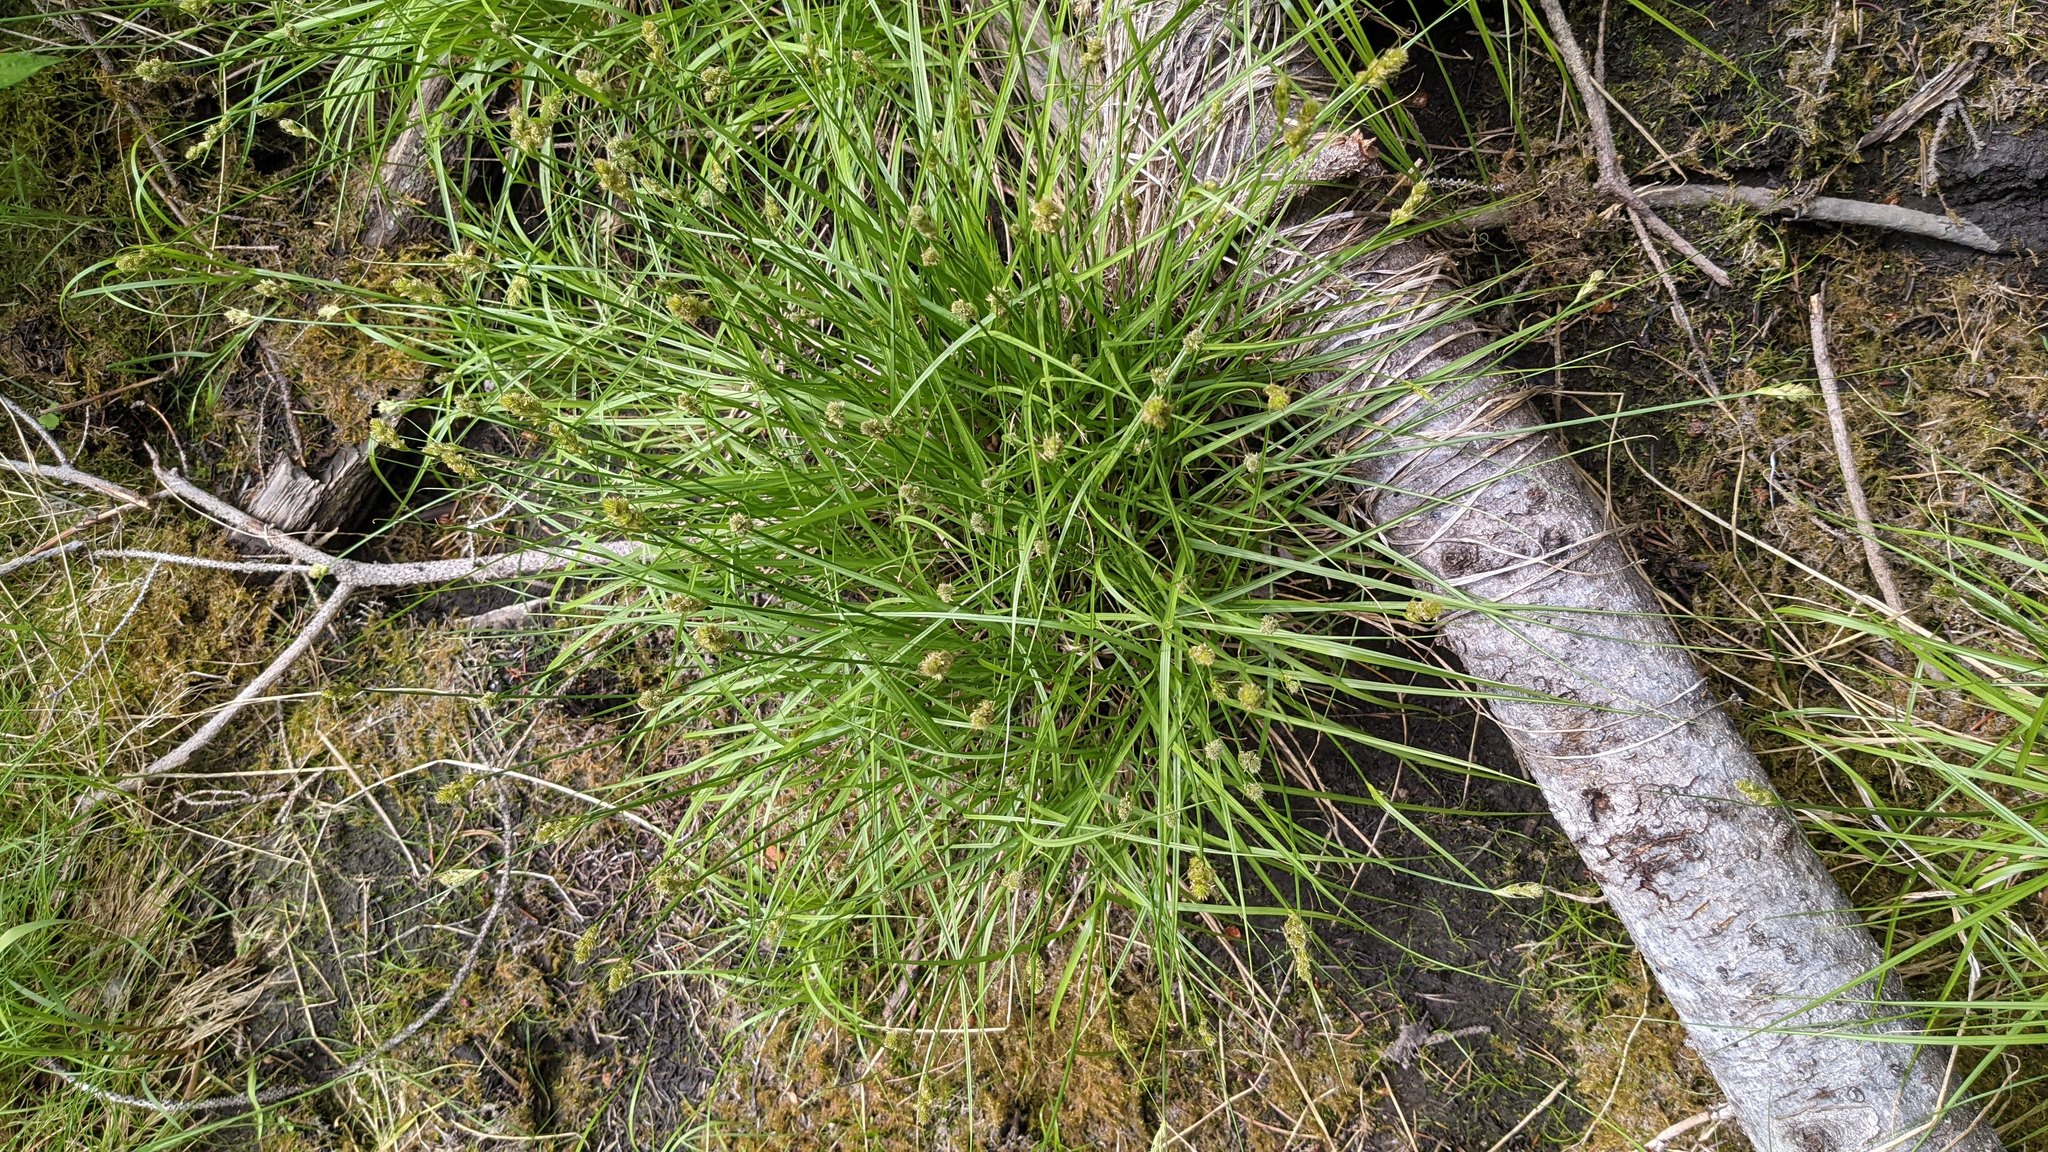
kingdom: Plantae
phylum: Tracheophyta
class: Liliopsida
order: Poales
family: Cyperaceae
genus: Carex
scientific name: Carex athrostachya
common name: Slenderbeak sedge
